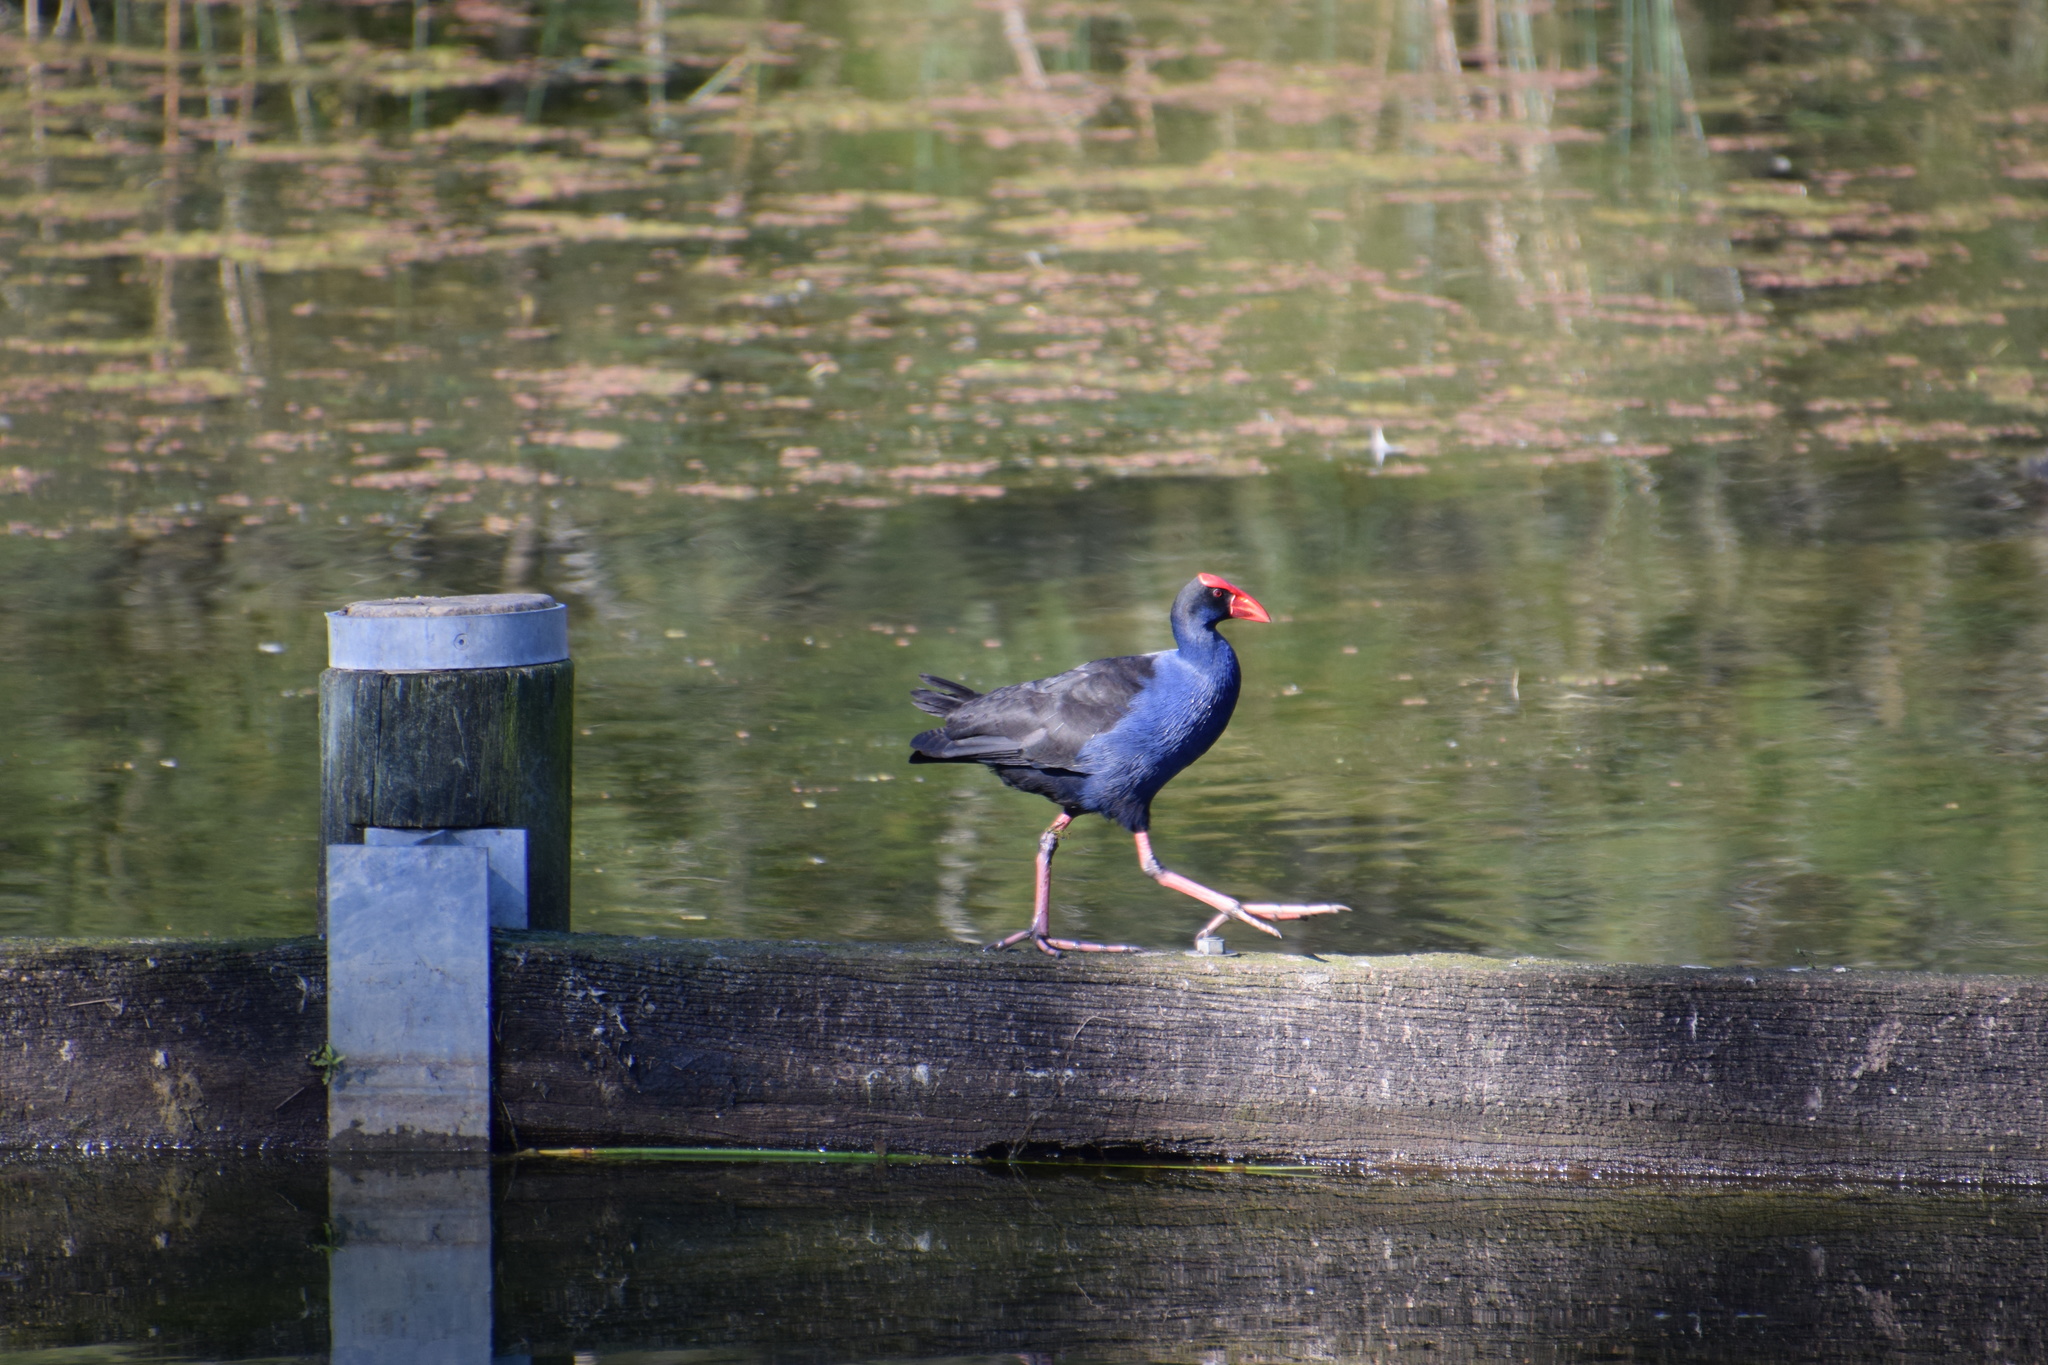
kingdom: Animalia
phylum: Chordata
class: Aves
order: Gruiformes
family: Rallidae
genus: Porphyrio
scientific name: Porphyrio melanotus
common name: Australasian swamphen
